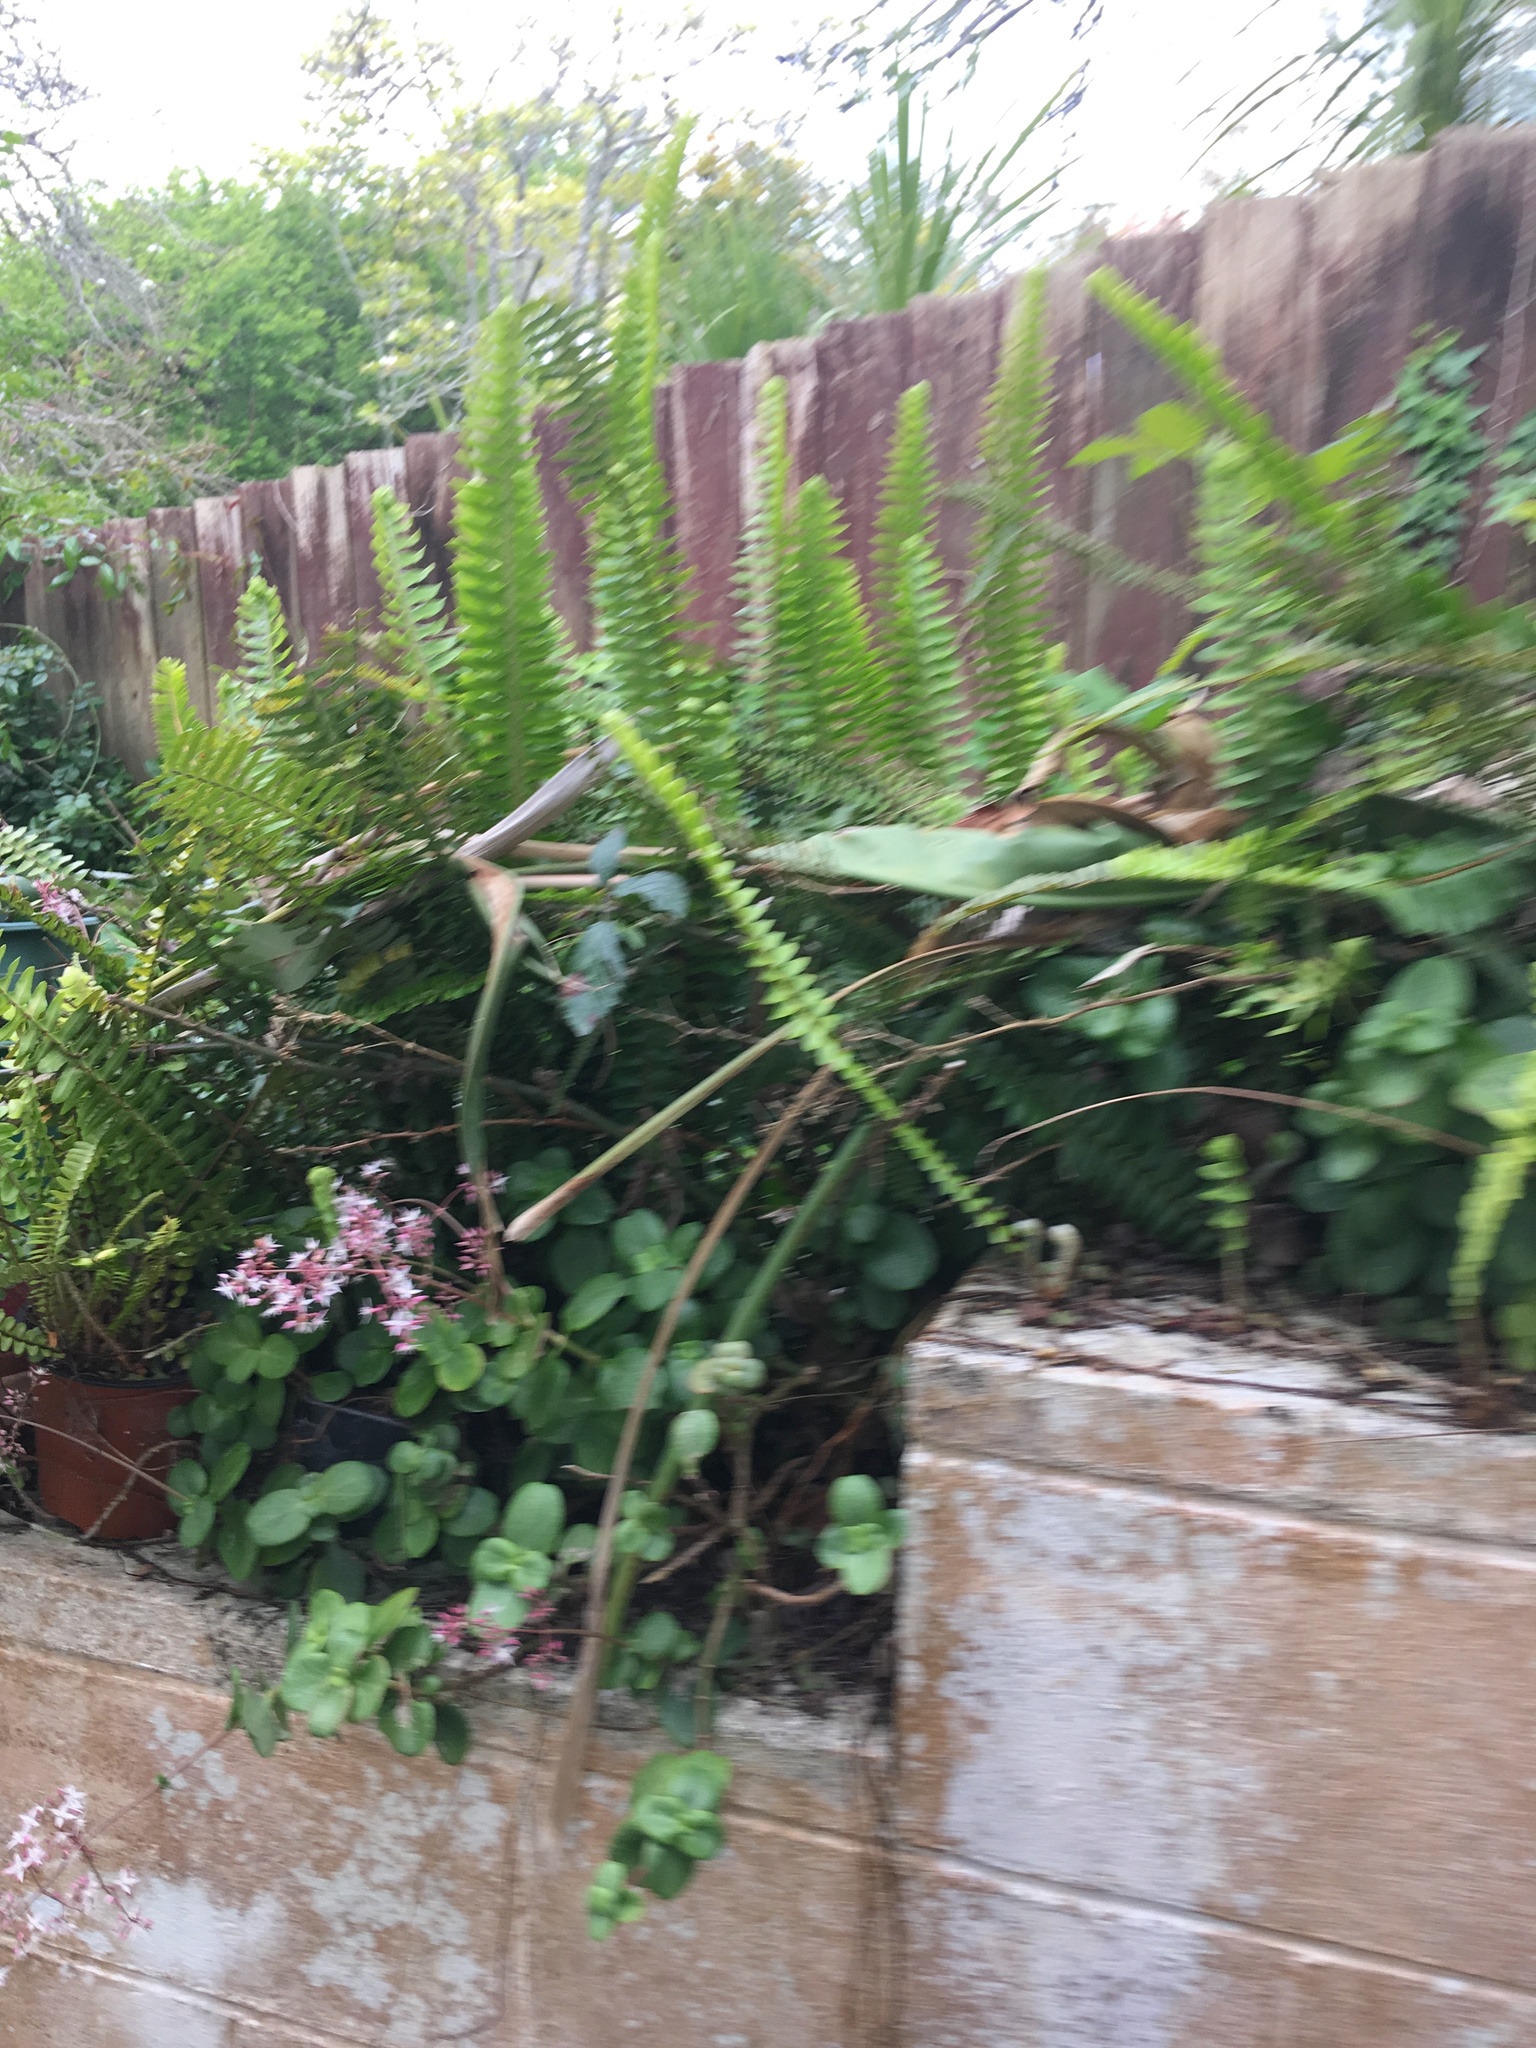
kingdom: Plantae
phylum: Tracheophyta
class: Polypodiopsida
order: Polypodiales
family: Nephrolepidaceae
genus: Nephrolepis
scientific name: Nephrolepis cordifolia
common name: Narrow swordfern
